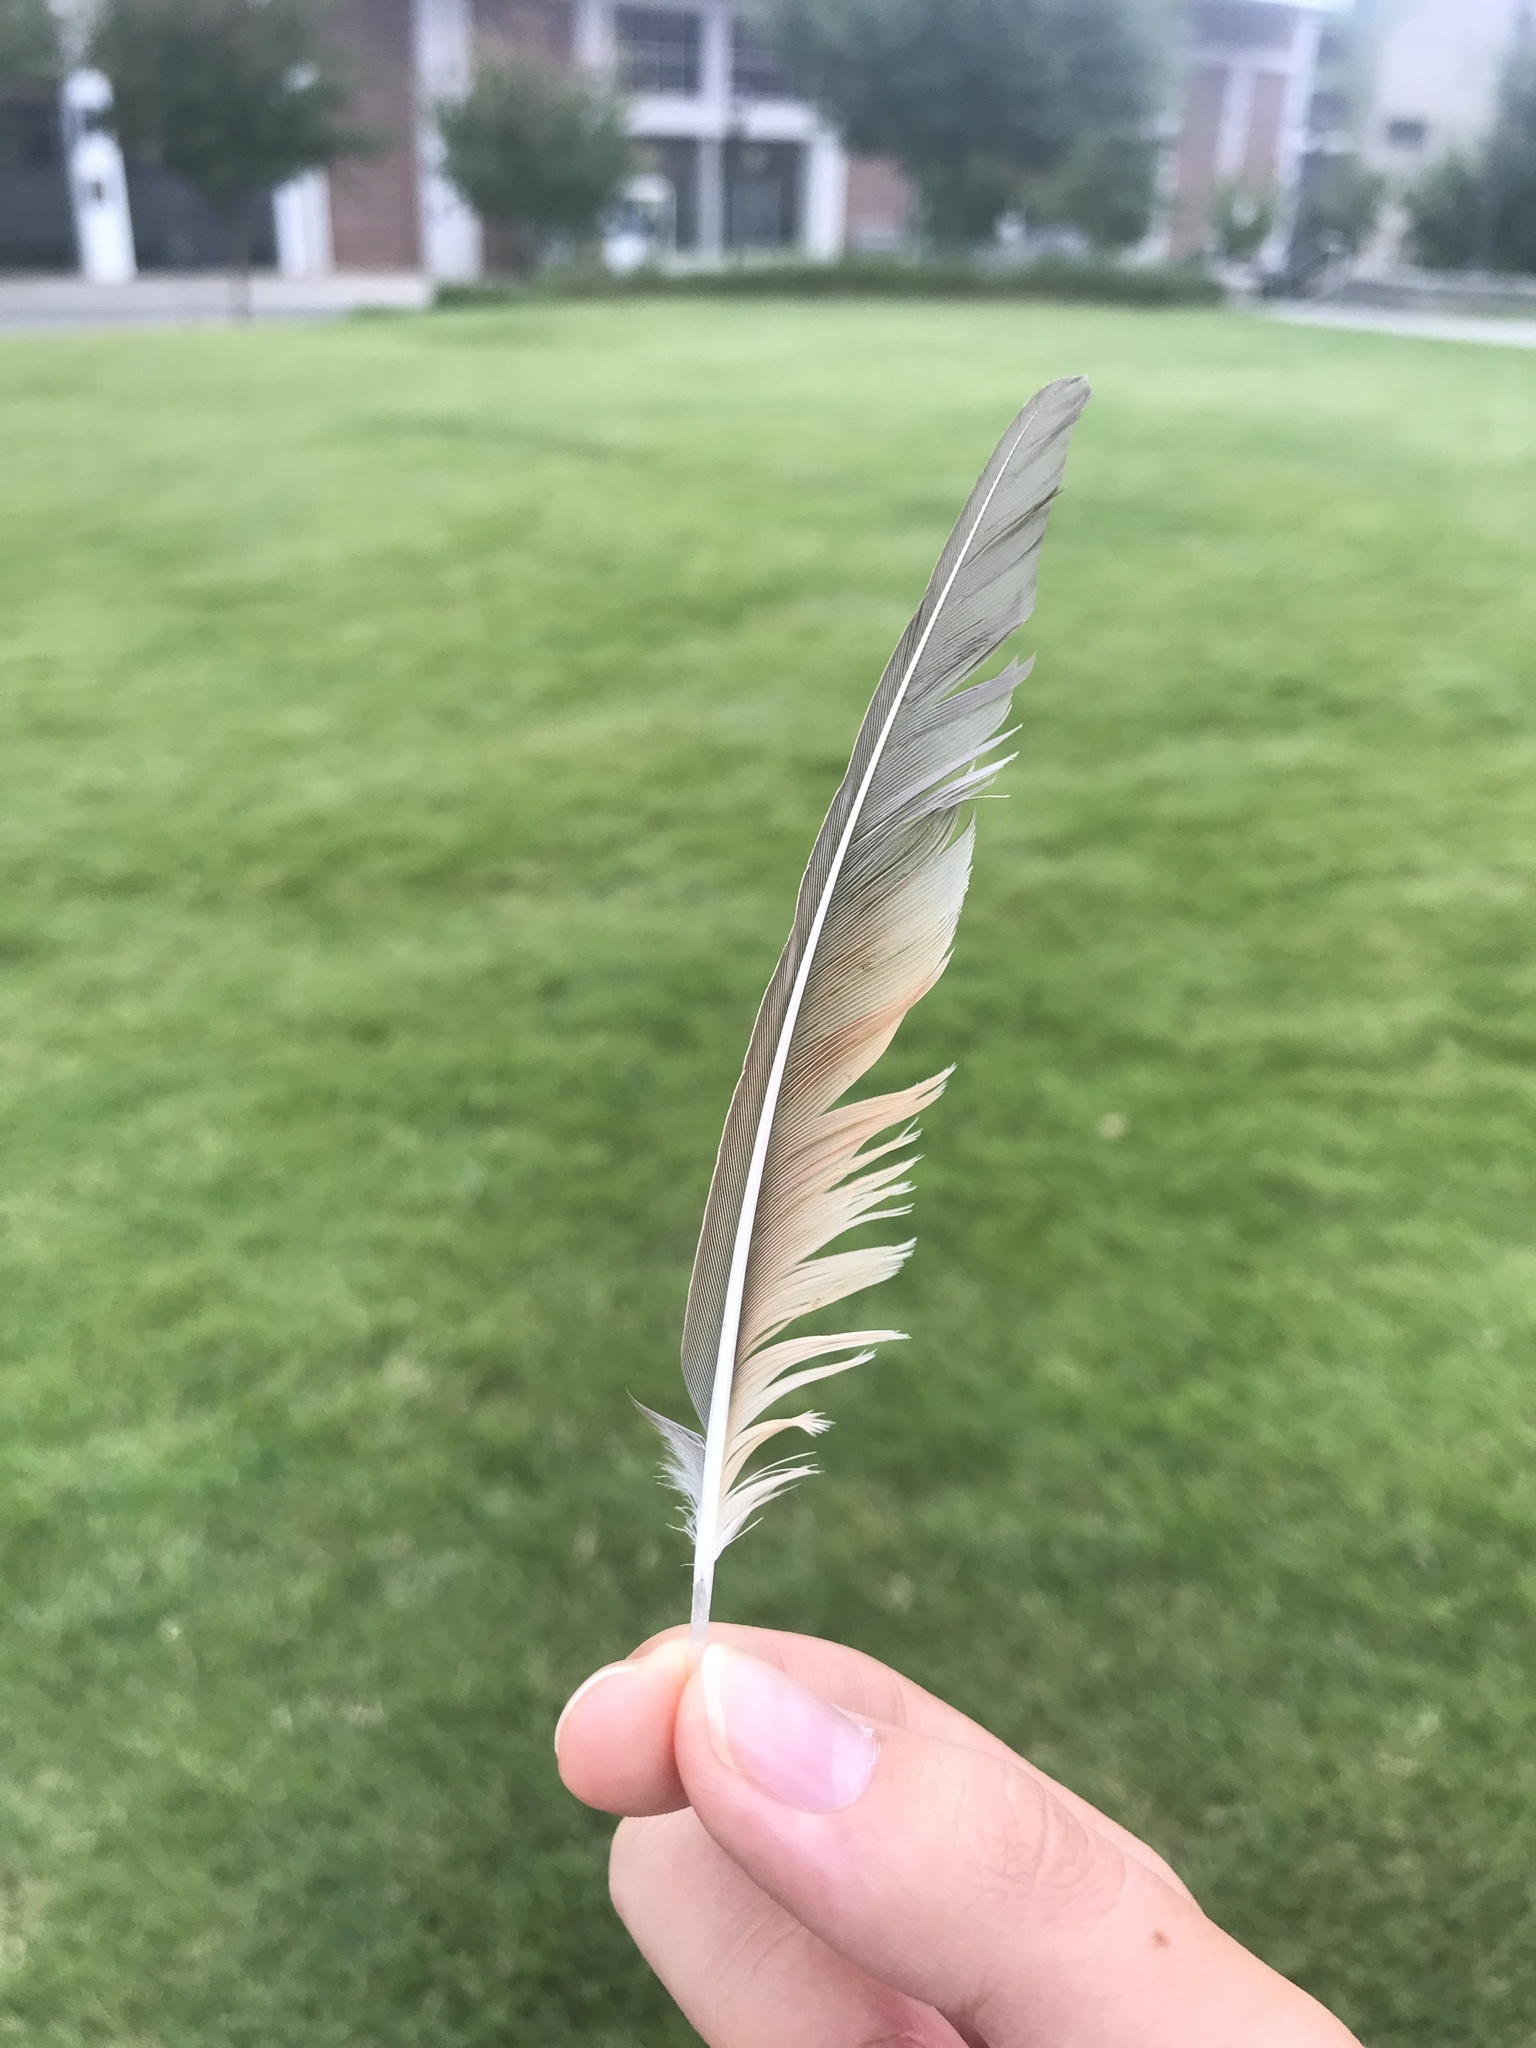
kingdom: Animalia
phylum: Chordata
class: Aves
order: Cuculiformes
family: Cuculidae
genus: Coccyzus
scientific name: Coccyzus americanus
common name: Yellow-billed cuckoo
